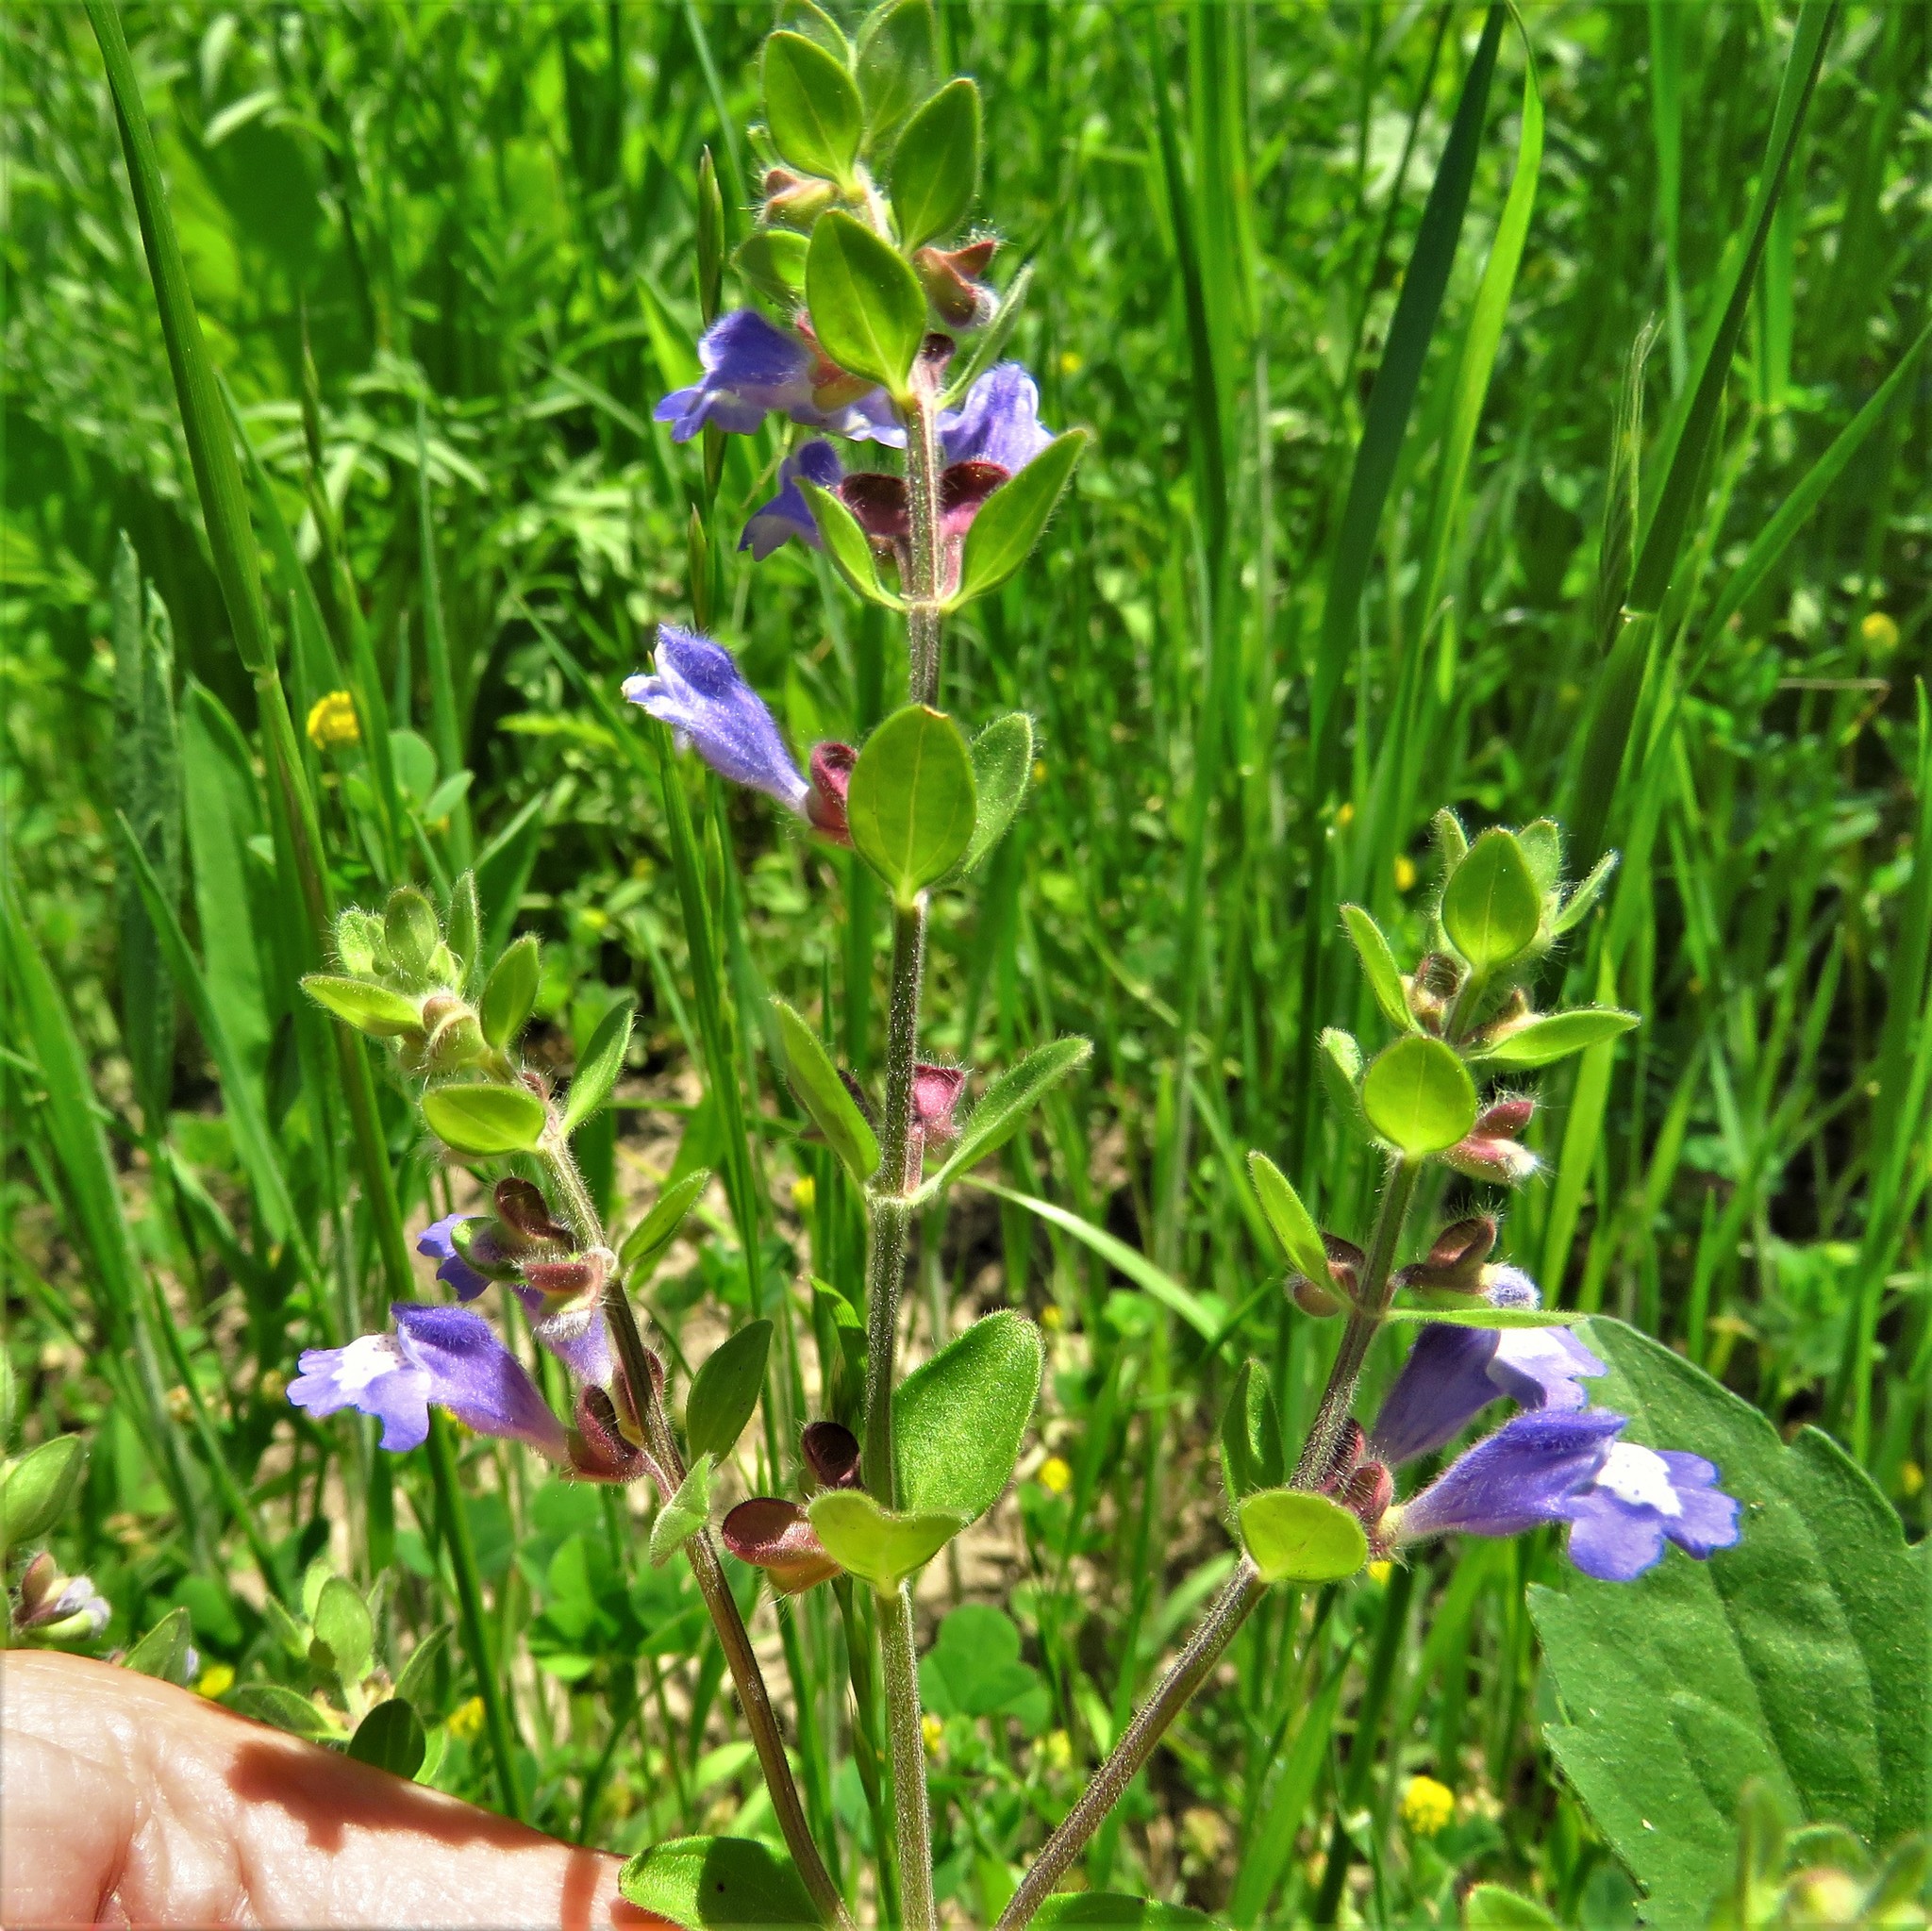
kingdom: Plantae
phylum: Tracheophyta
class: Magnoliopsida
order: Lamiales
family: Lamiaceae
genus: Scutellaria
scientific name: Scutellaria drummondii
